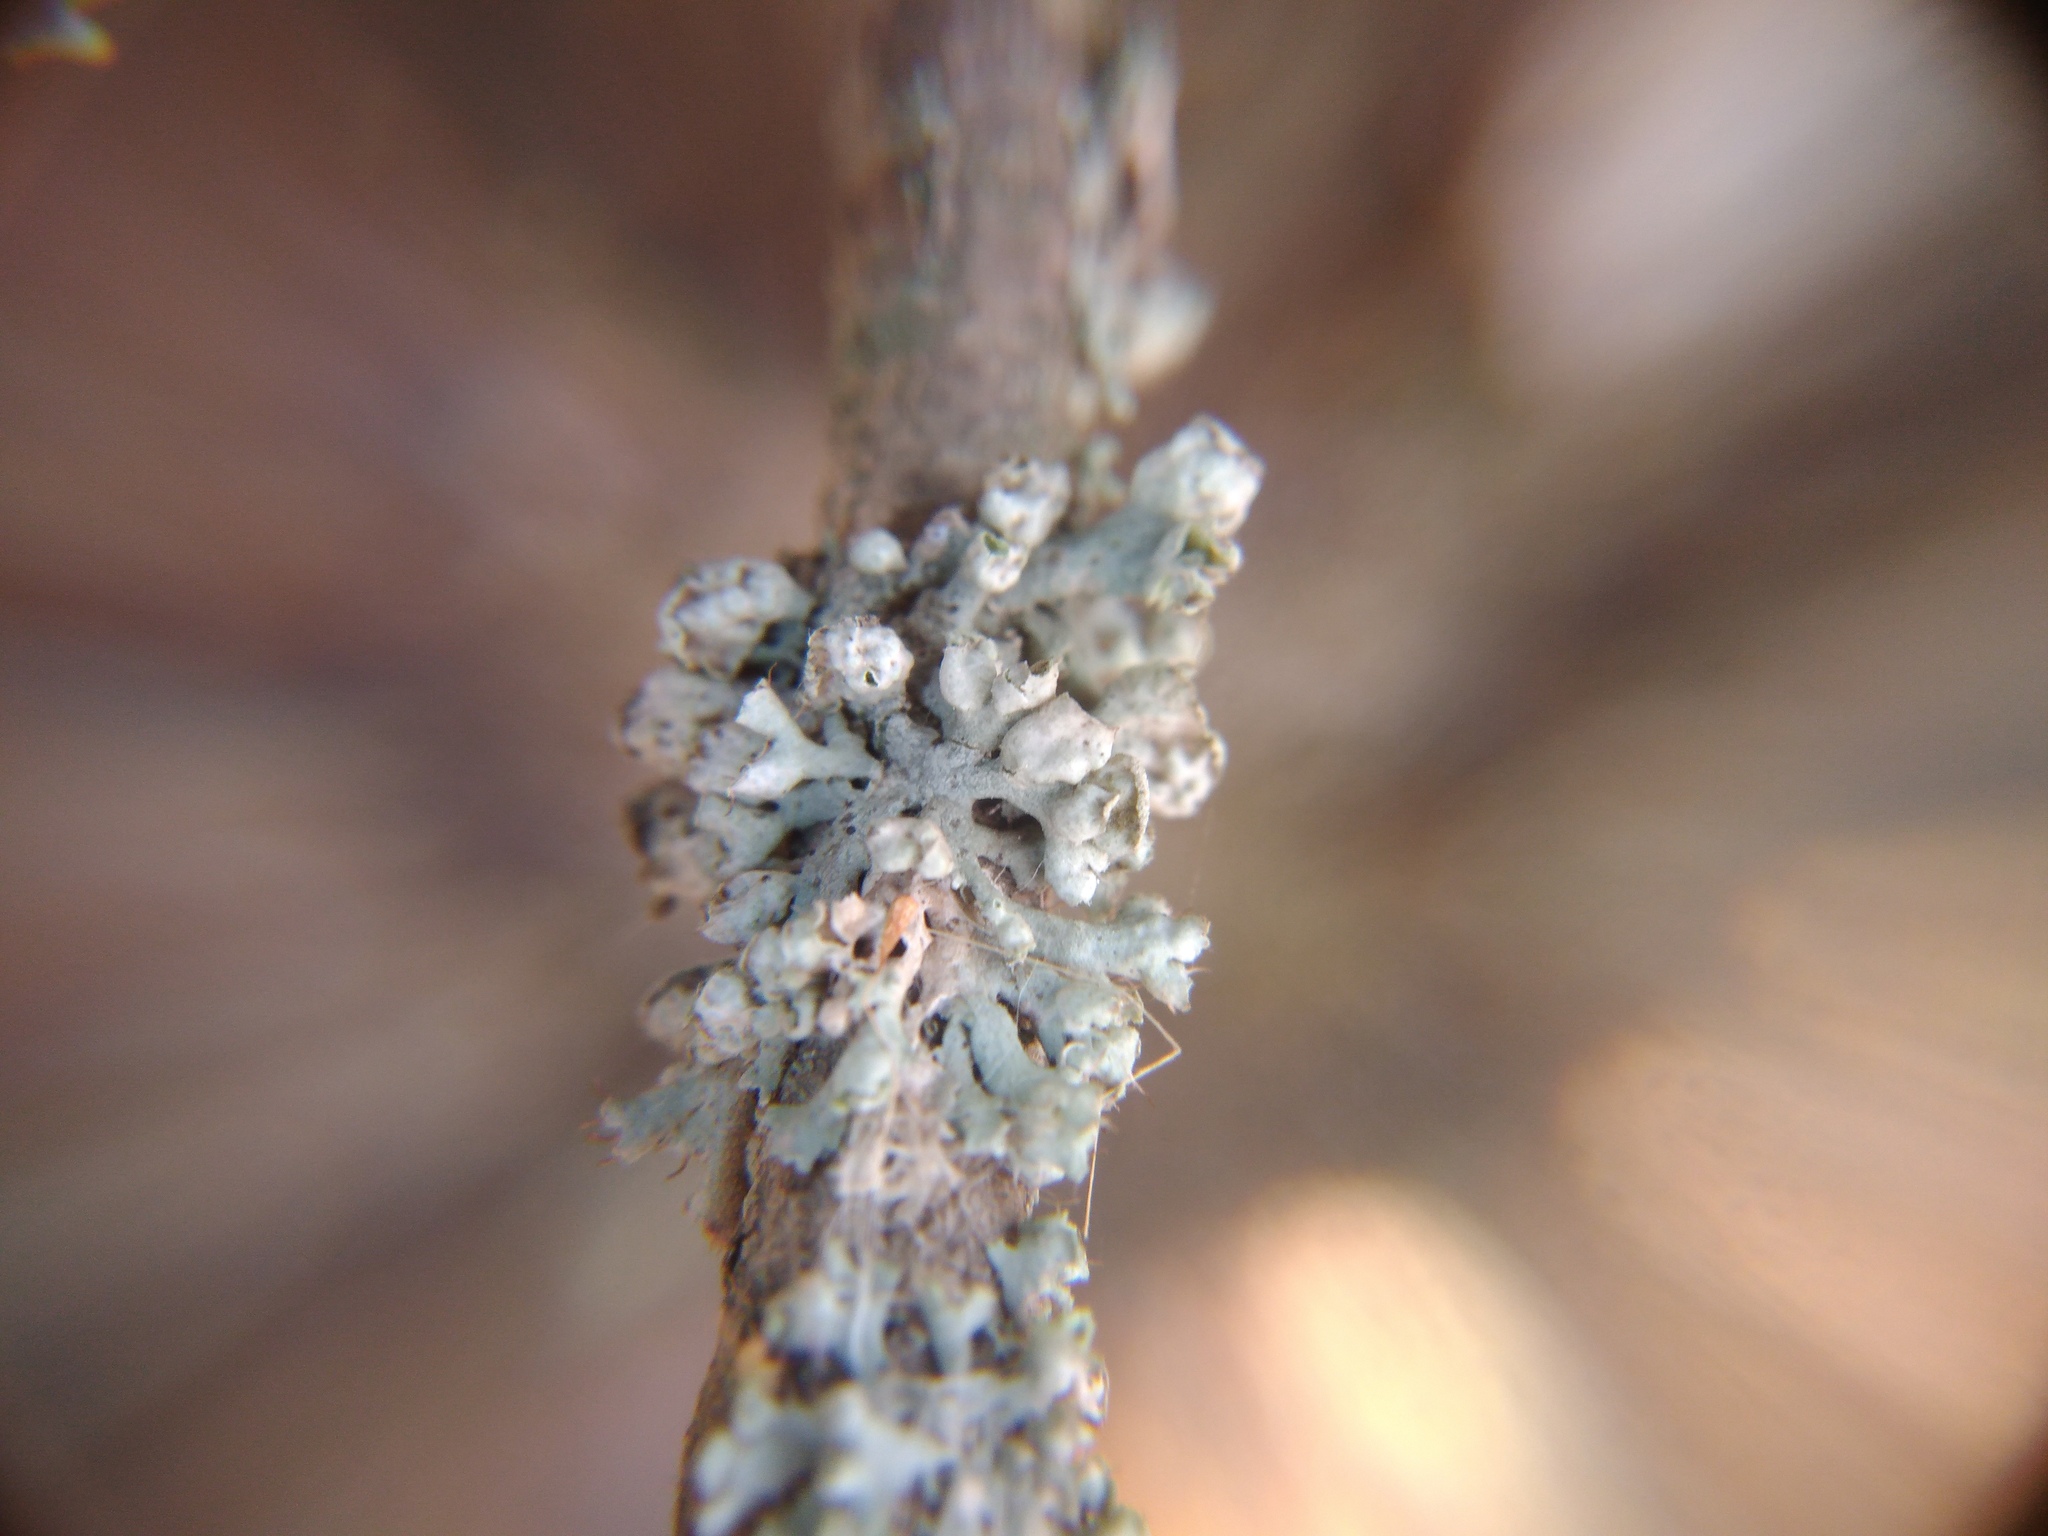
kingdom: Fungi
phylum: Ascomycota
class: Lecanoromycetes
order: Caliciales
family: Physciaceae
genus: Physcia
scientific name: Physcia adscendens
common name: Hooded rosette lichen
